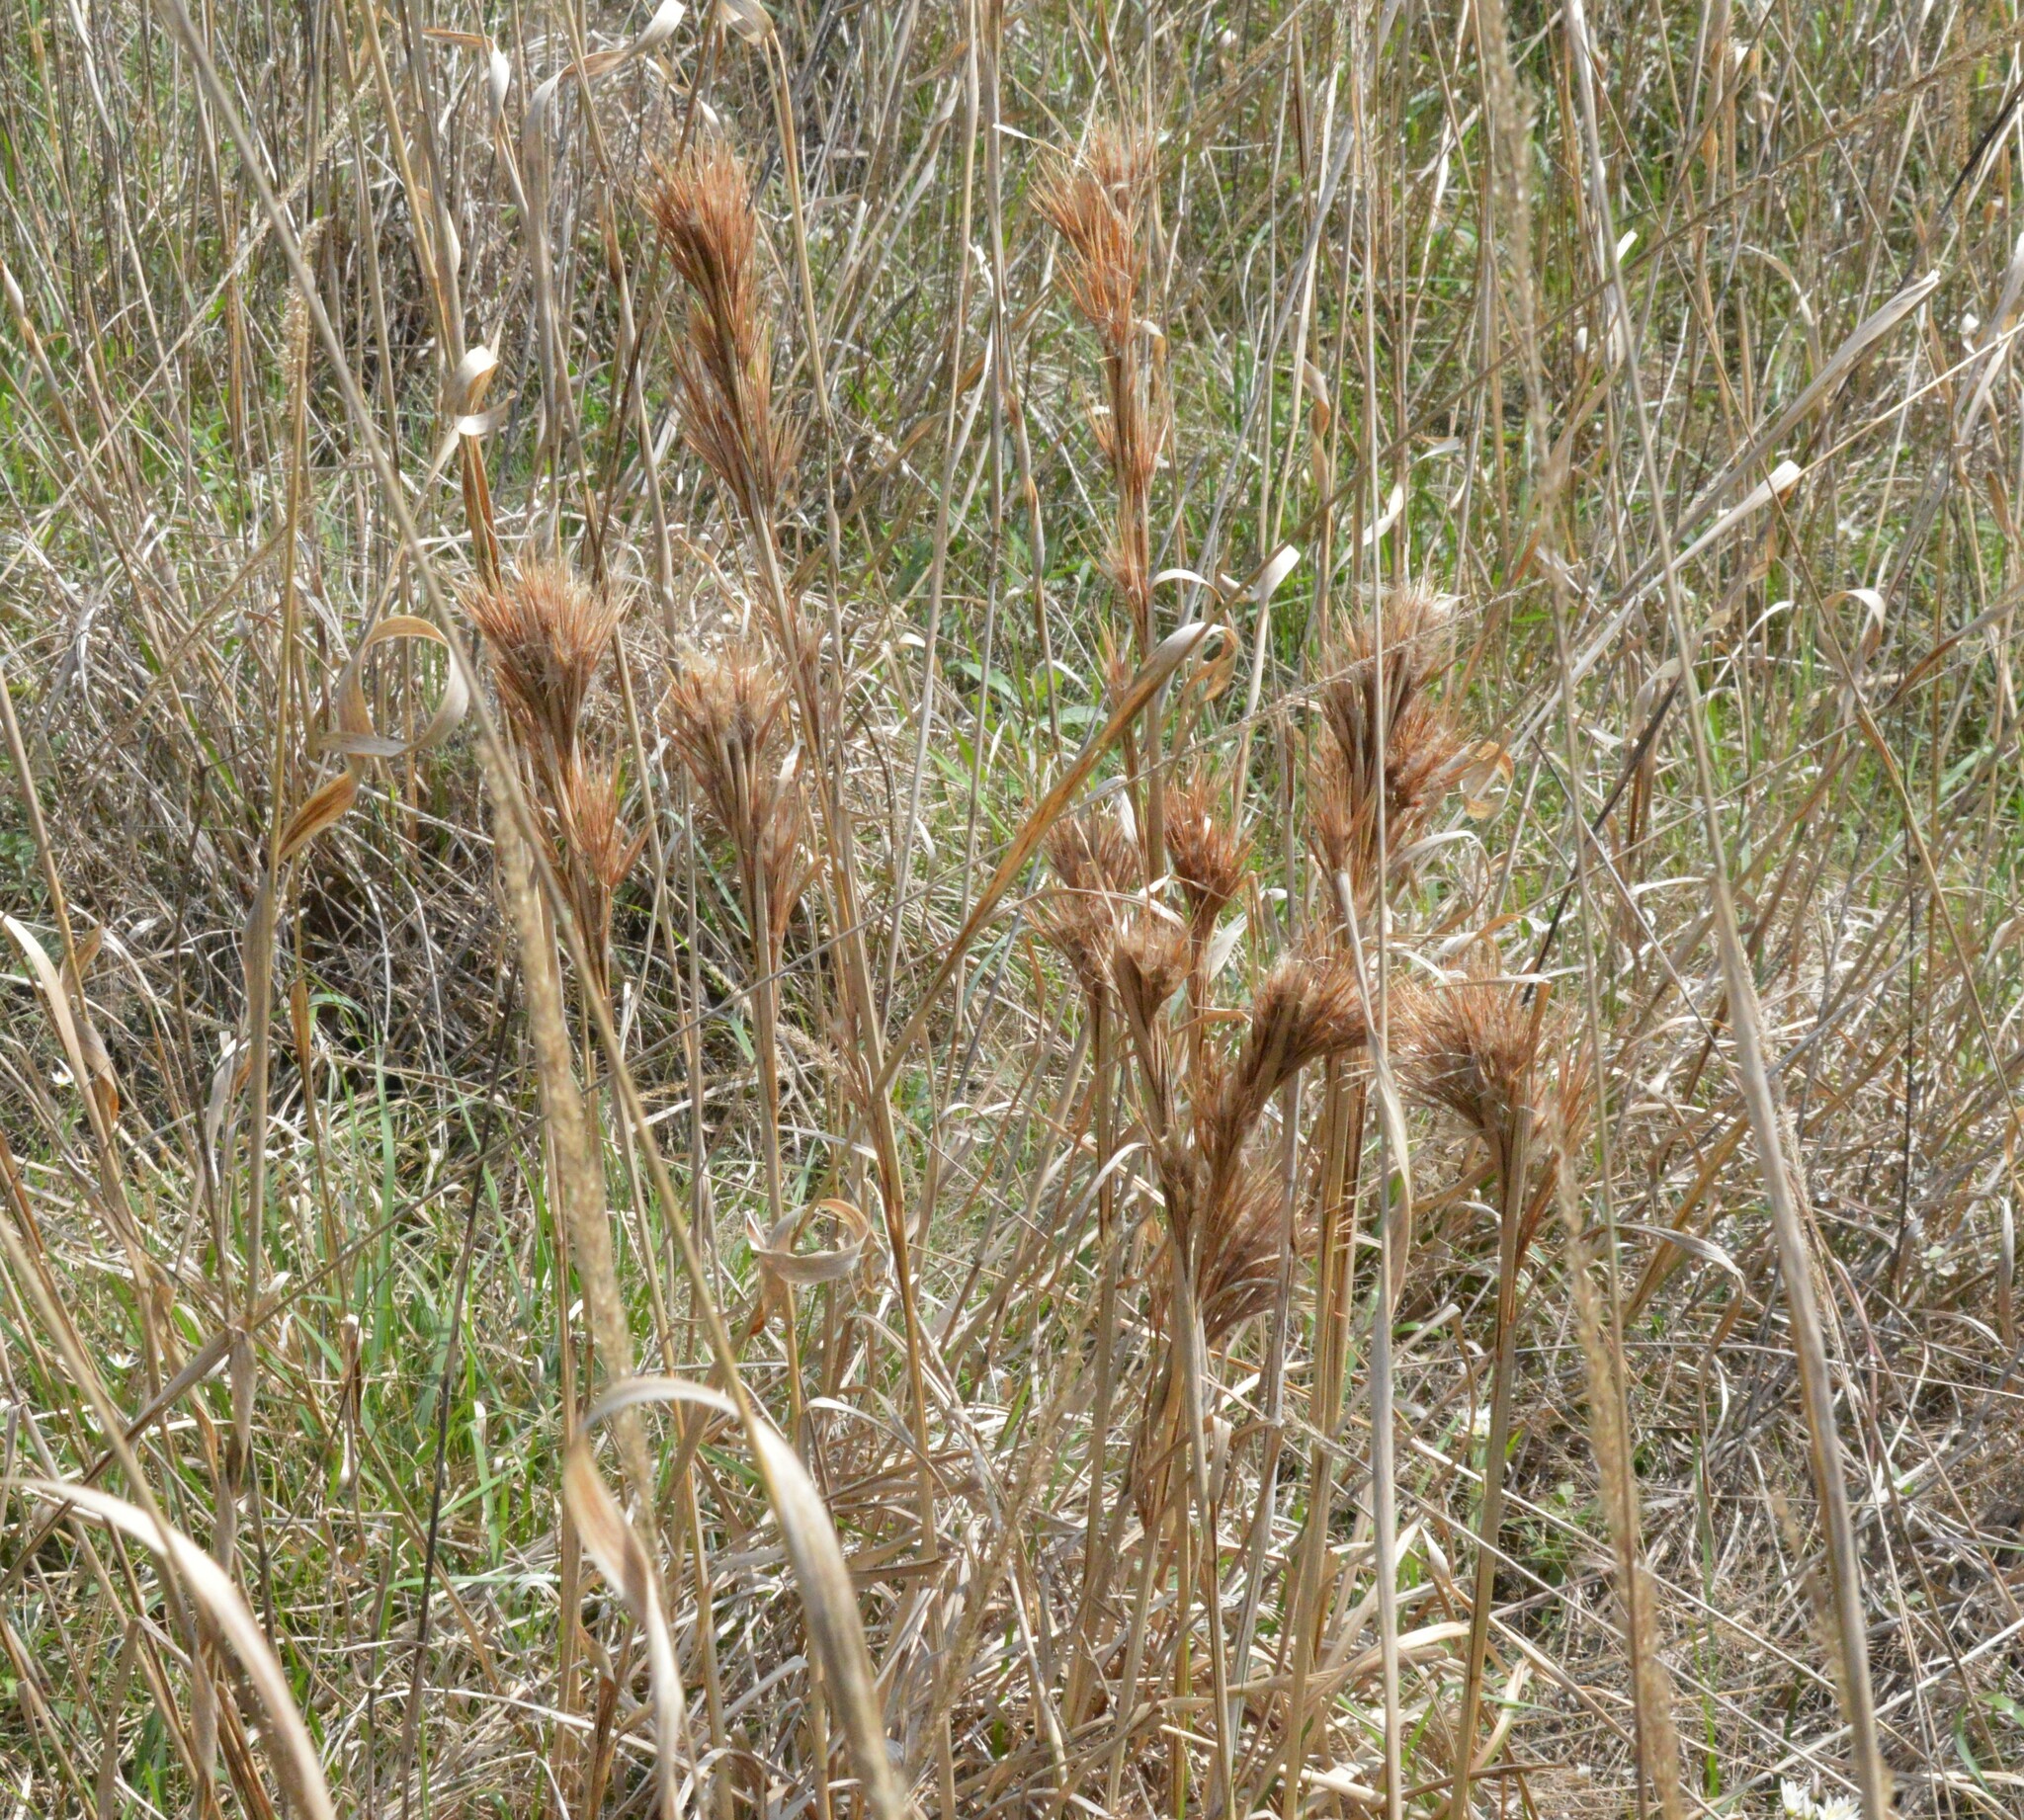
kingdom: Plantae
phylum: Tracheophyta
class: Liliopsida
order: Poales
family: Poaceae
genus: Andropogon
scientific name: Andropogon tenuispatheus
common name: Bushy bluestem
